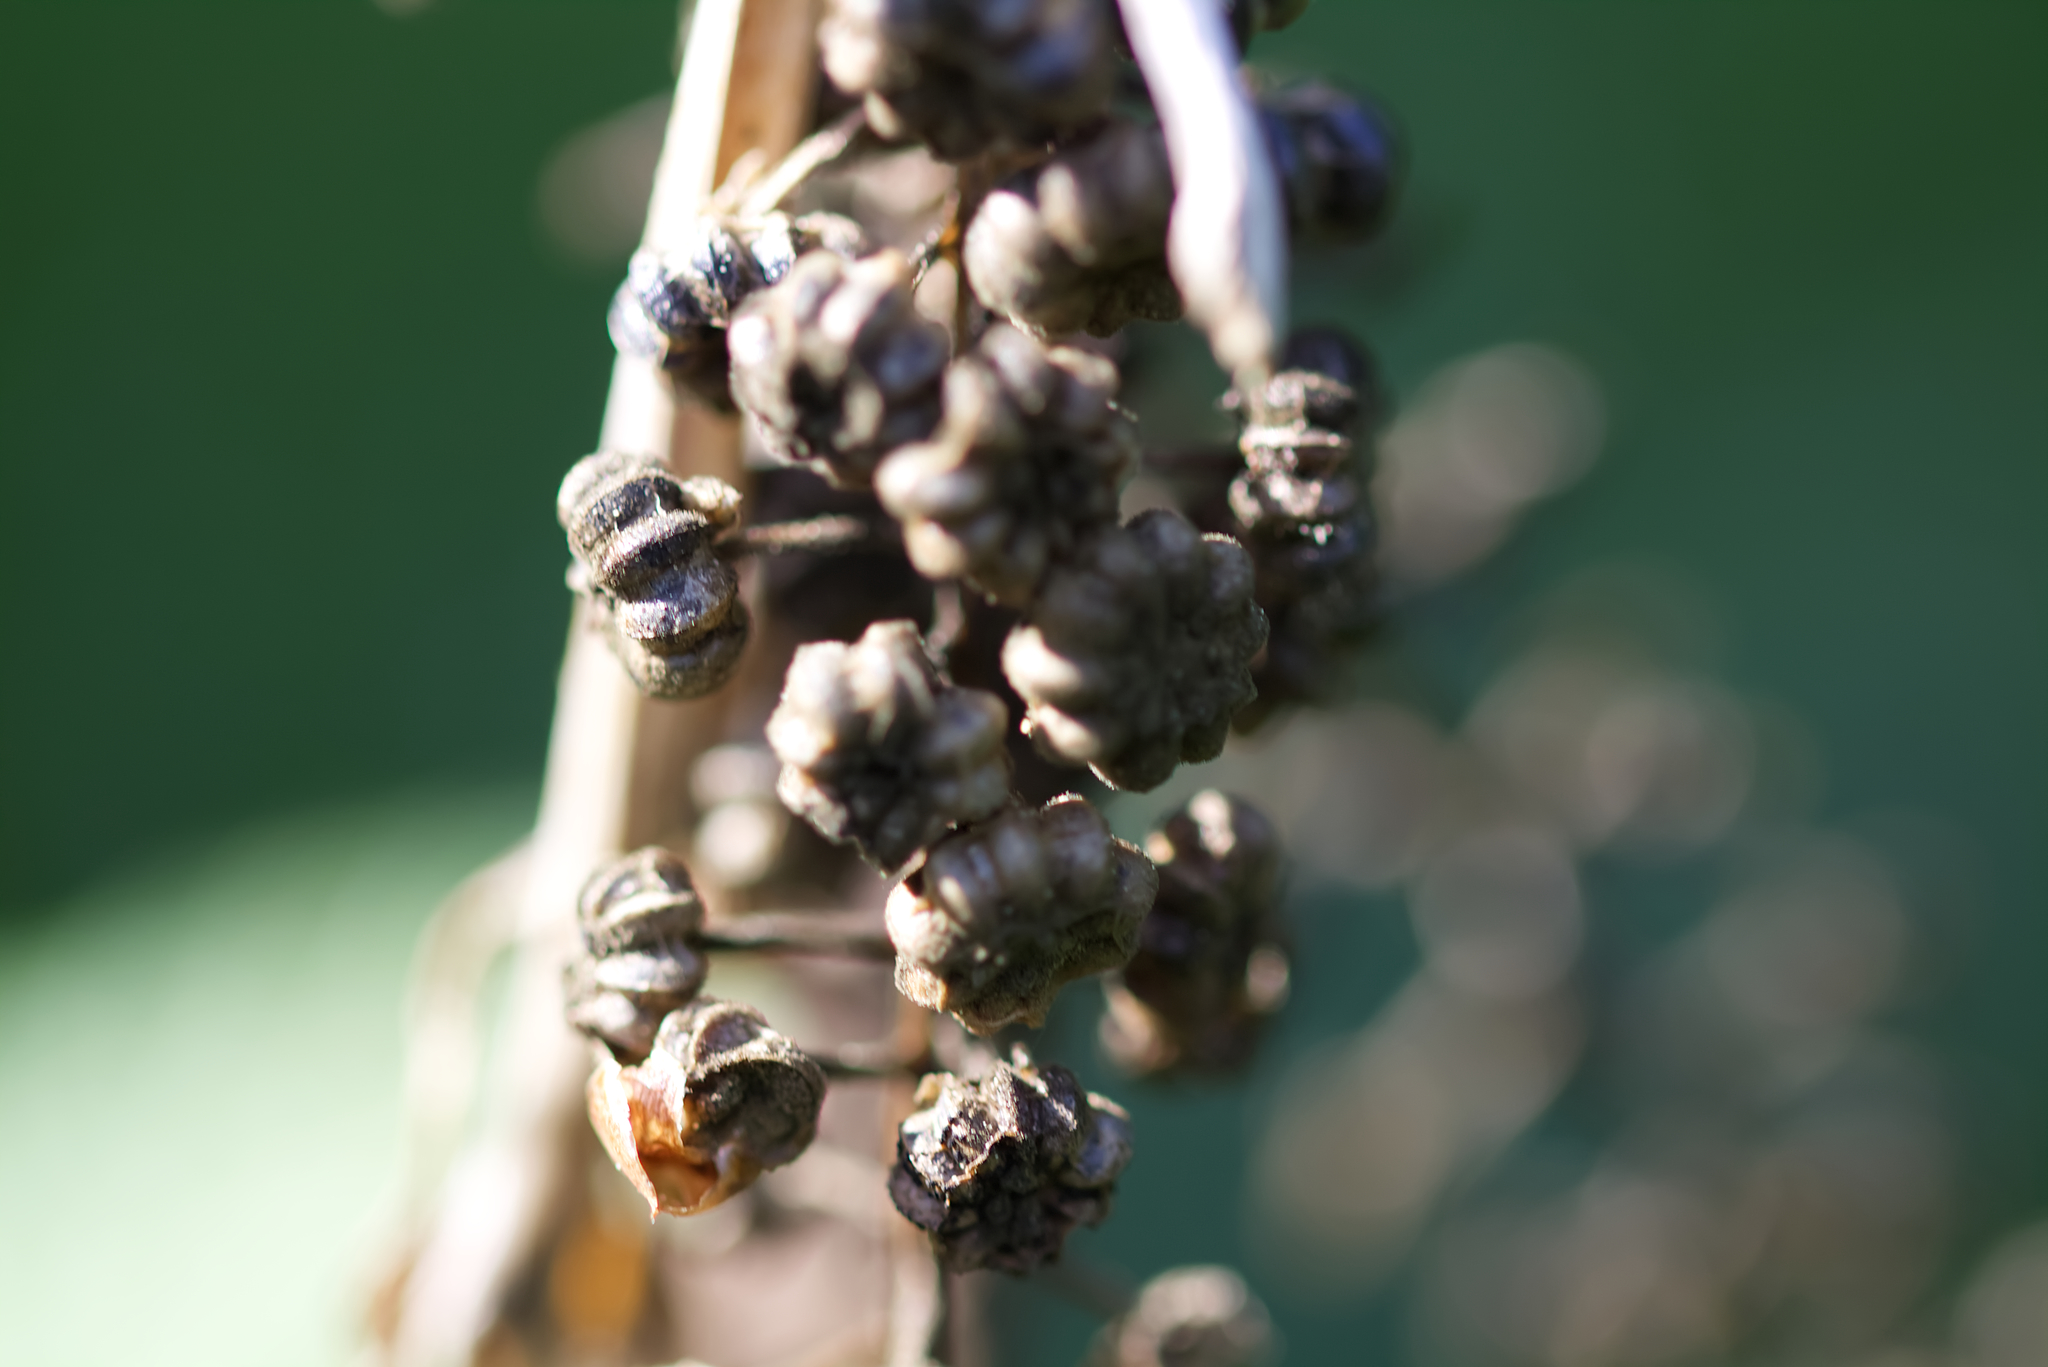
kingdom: Plantae
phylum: Tracheophyta
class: Magnoliopsida
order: Caryophyllales
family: Phytolaccaceae
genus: Phytolacca
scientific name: Phytolacca americana
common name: American pokeweed
